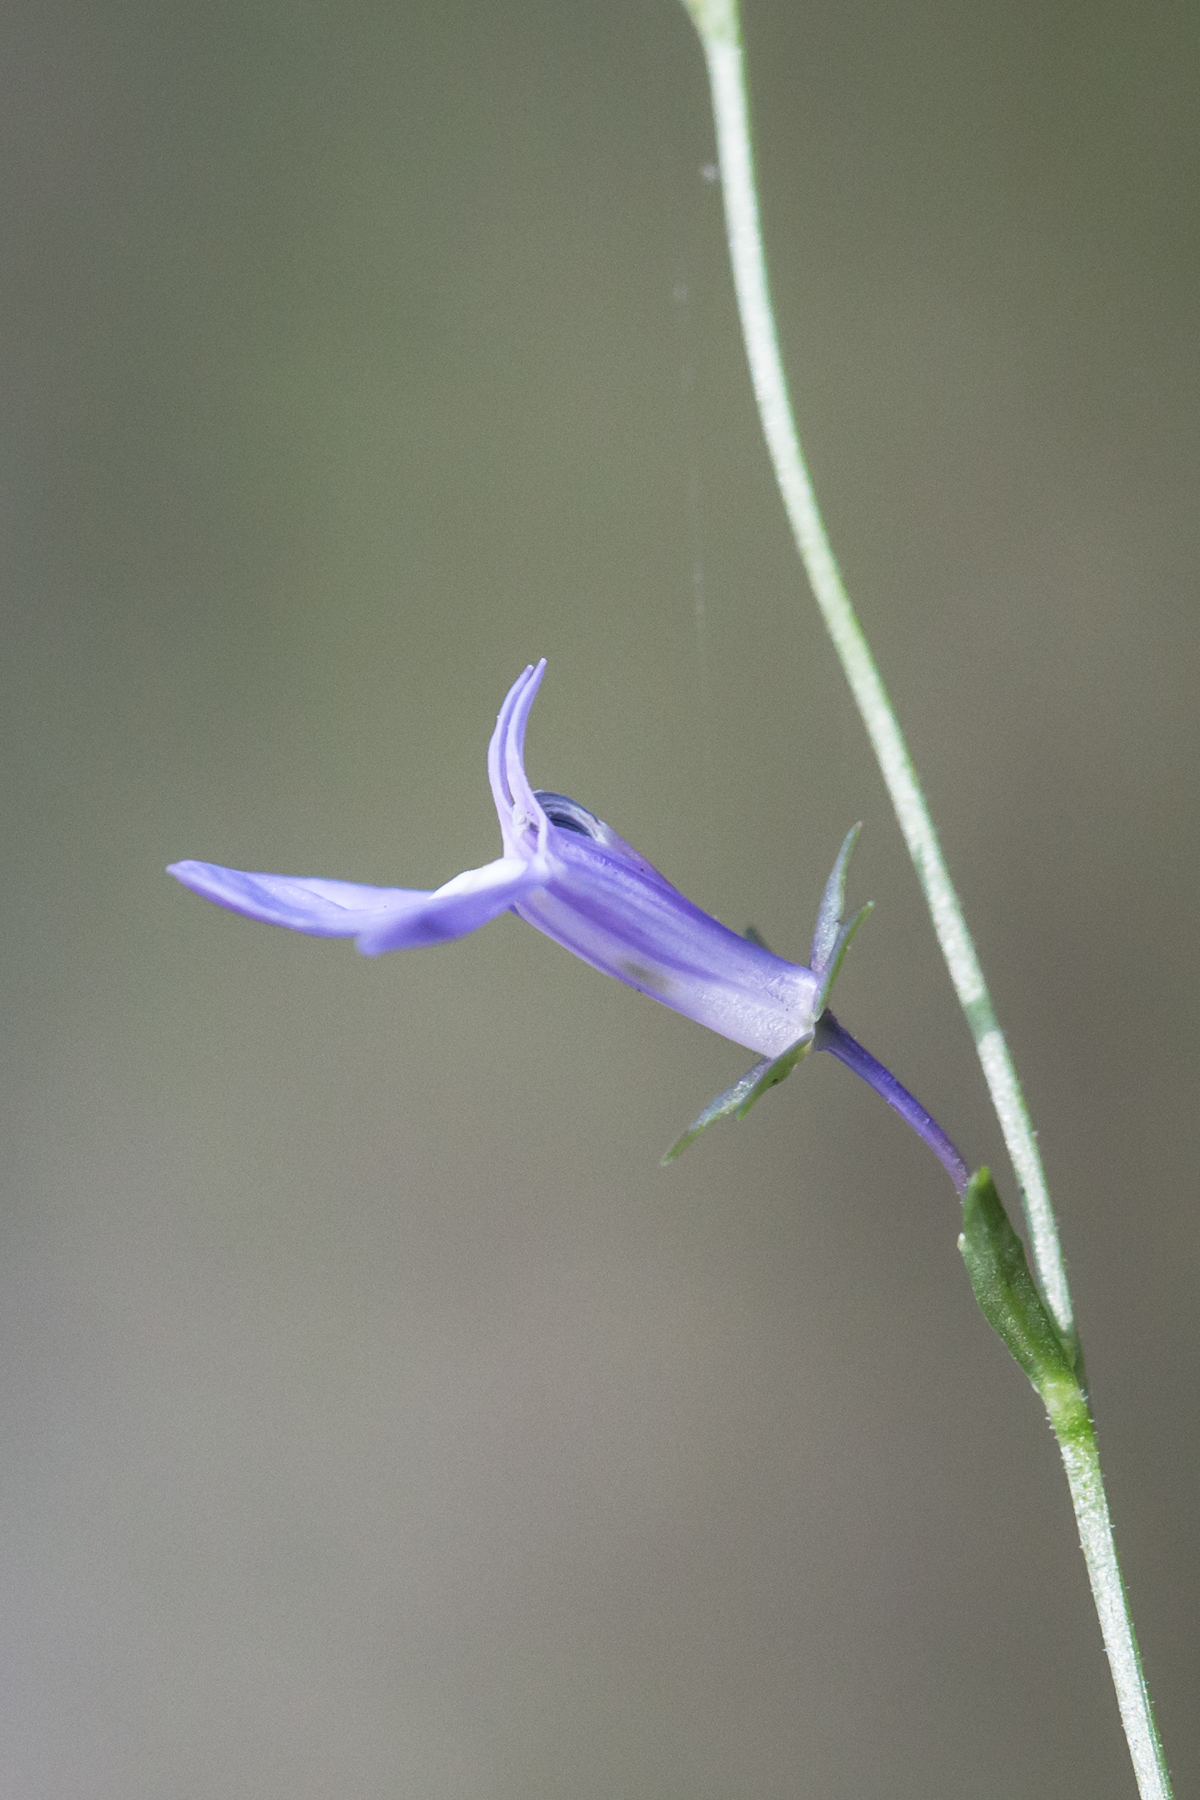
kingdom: Plantae
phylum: Tracheophyta
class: Magnoliopsida
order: Asterales
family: Campanulaceae
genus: Lobelia
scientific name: Lobelia nuttallii
